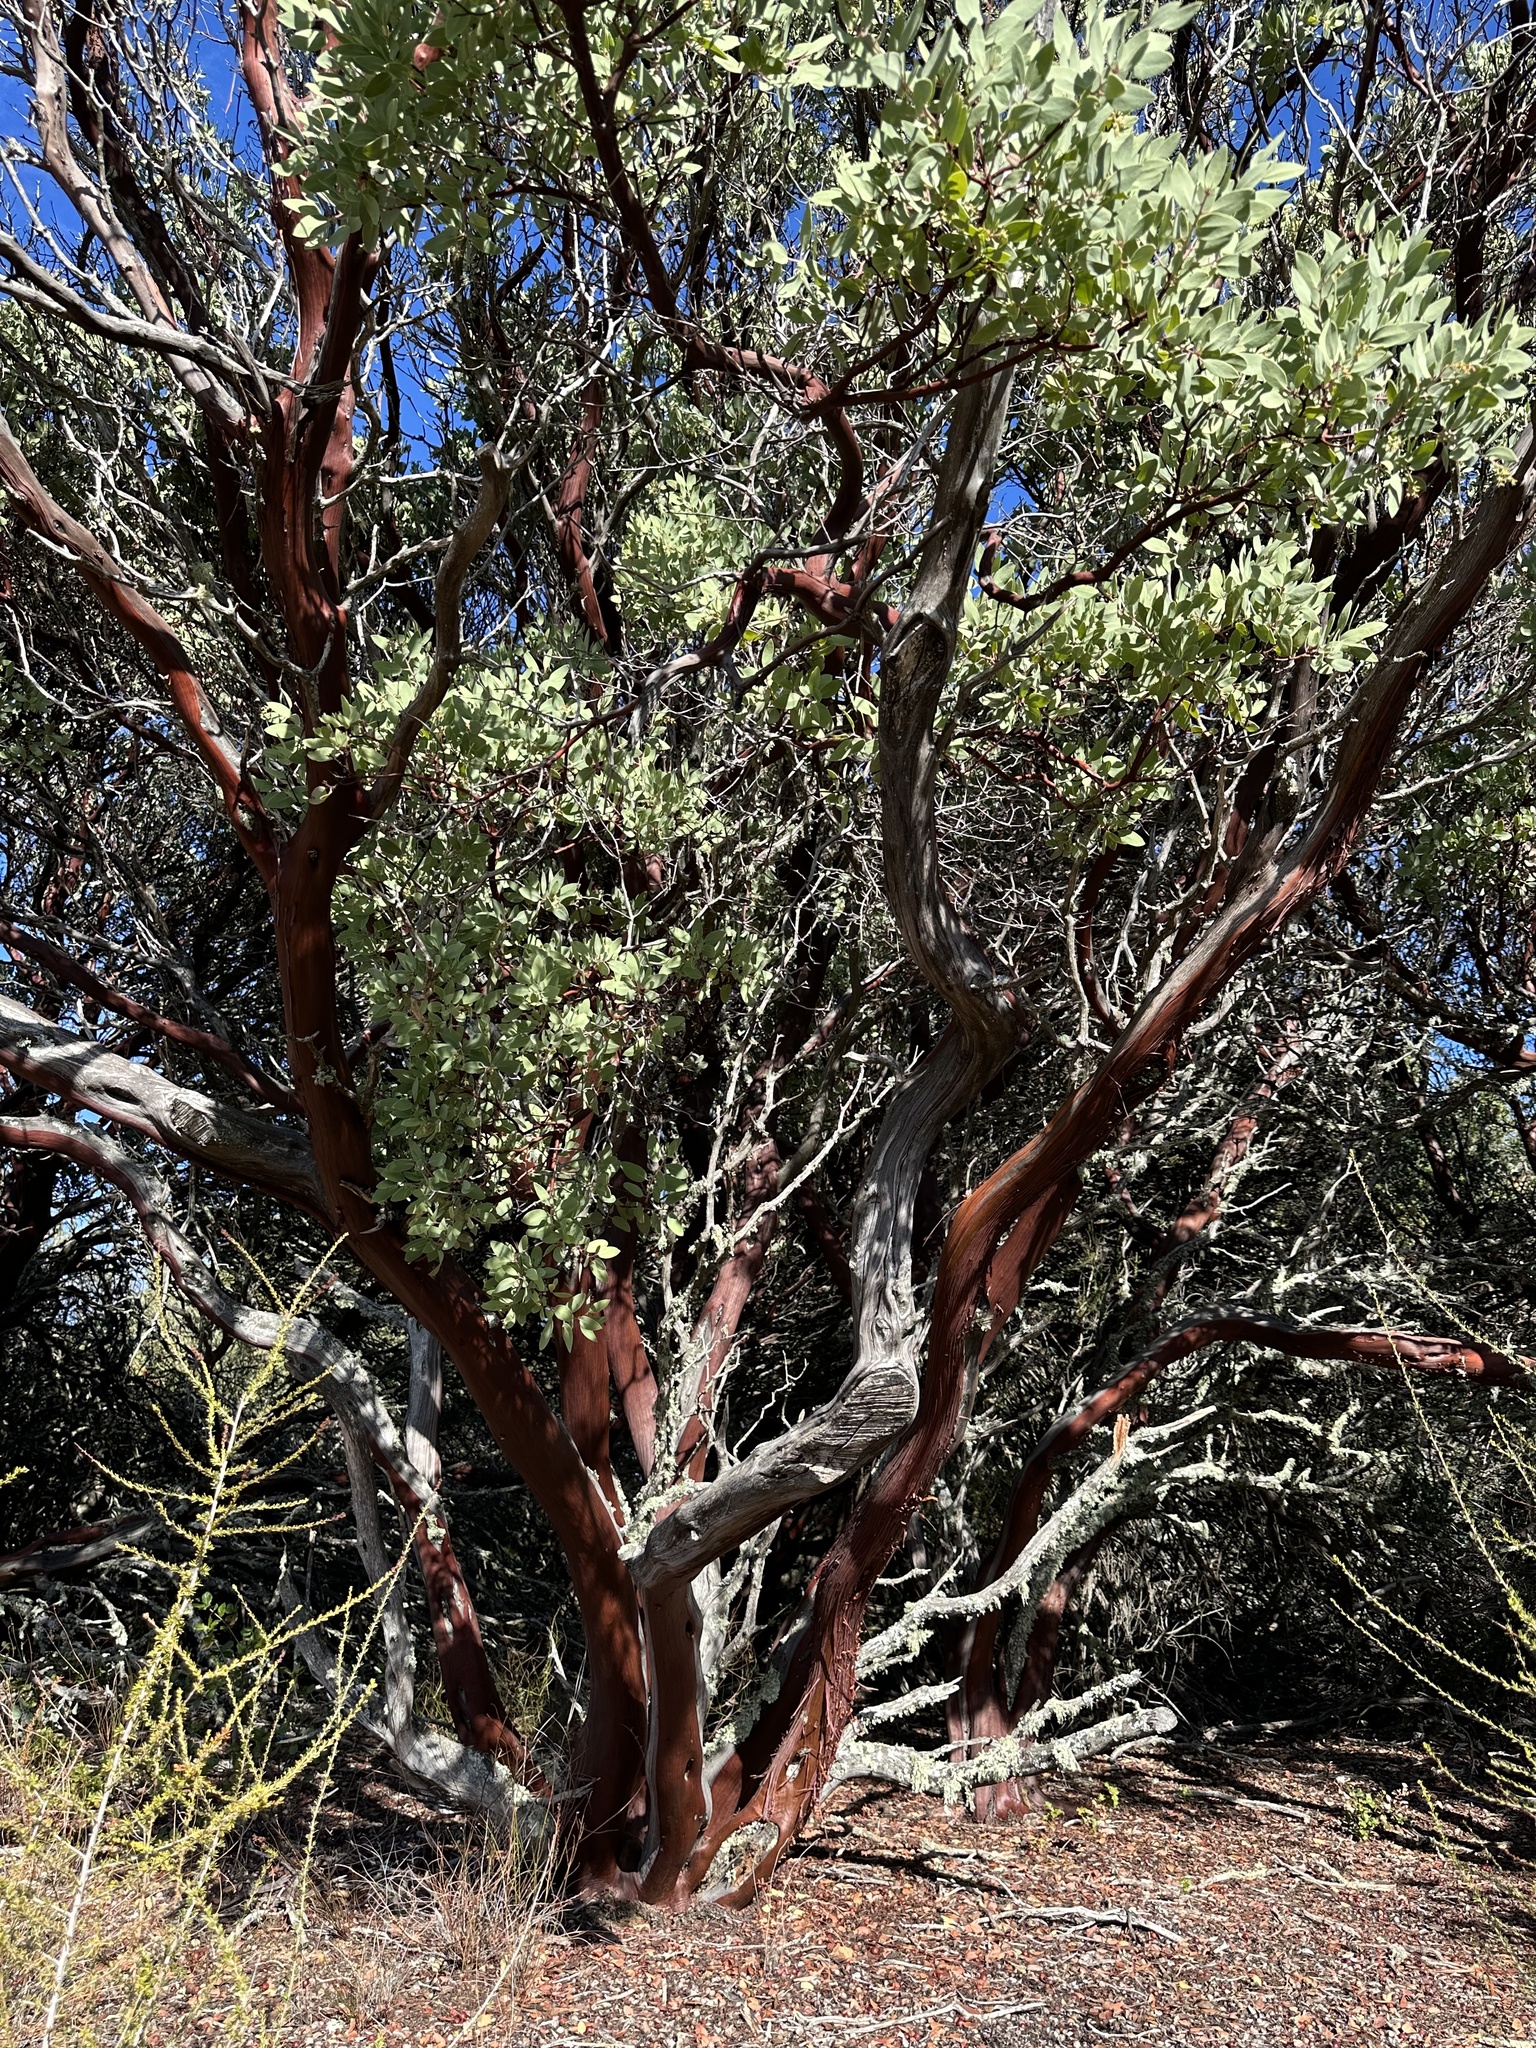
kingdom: Plantae
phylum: Tracheophyta
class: Magnoliopsida
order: Ericales
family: Ericaceae
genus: Arctostaphylos
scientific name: Arctostaphylos glauca
